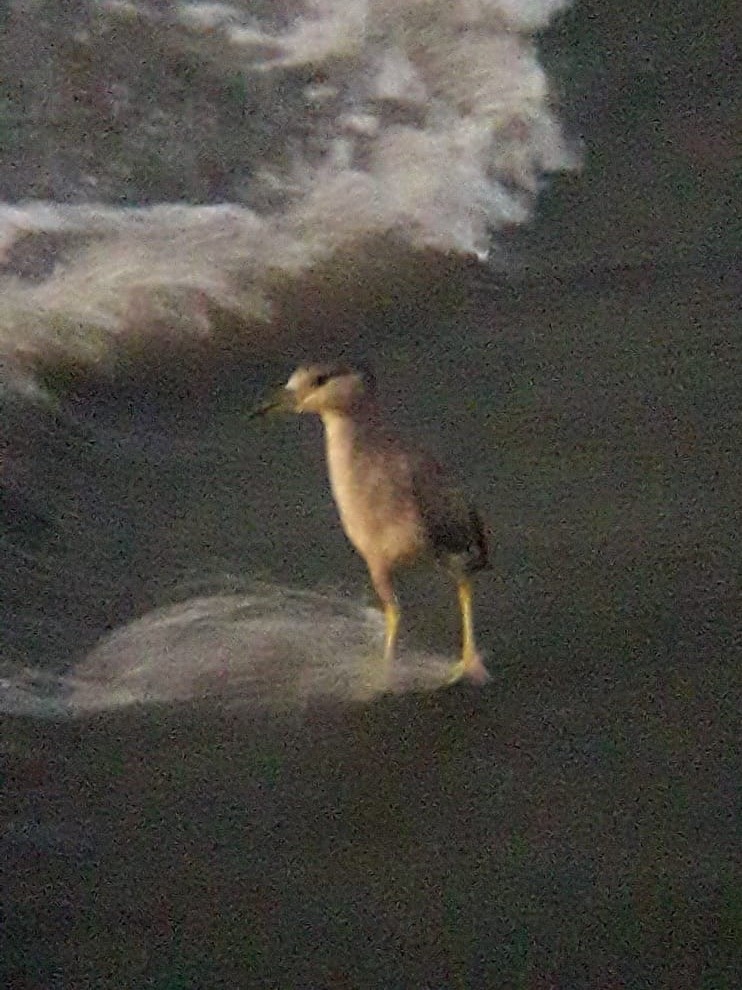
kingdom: Animalia
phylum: Chordata
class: Aves
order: Pelecaniformes
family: Ardeidae
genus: Nycticorax
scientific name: Nycticorax nycticorax
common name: Black-crowned night heron
